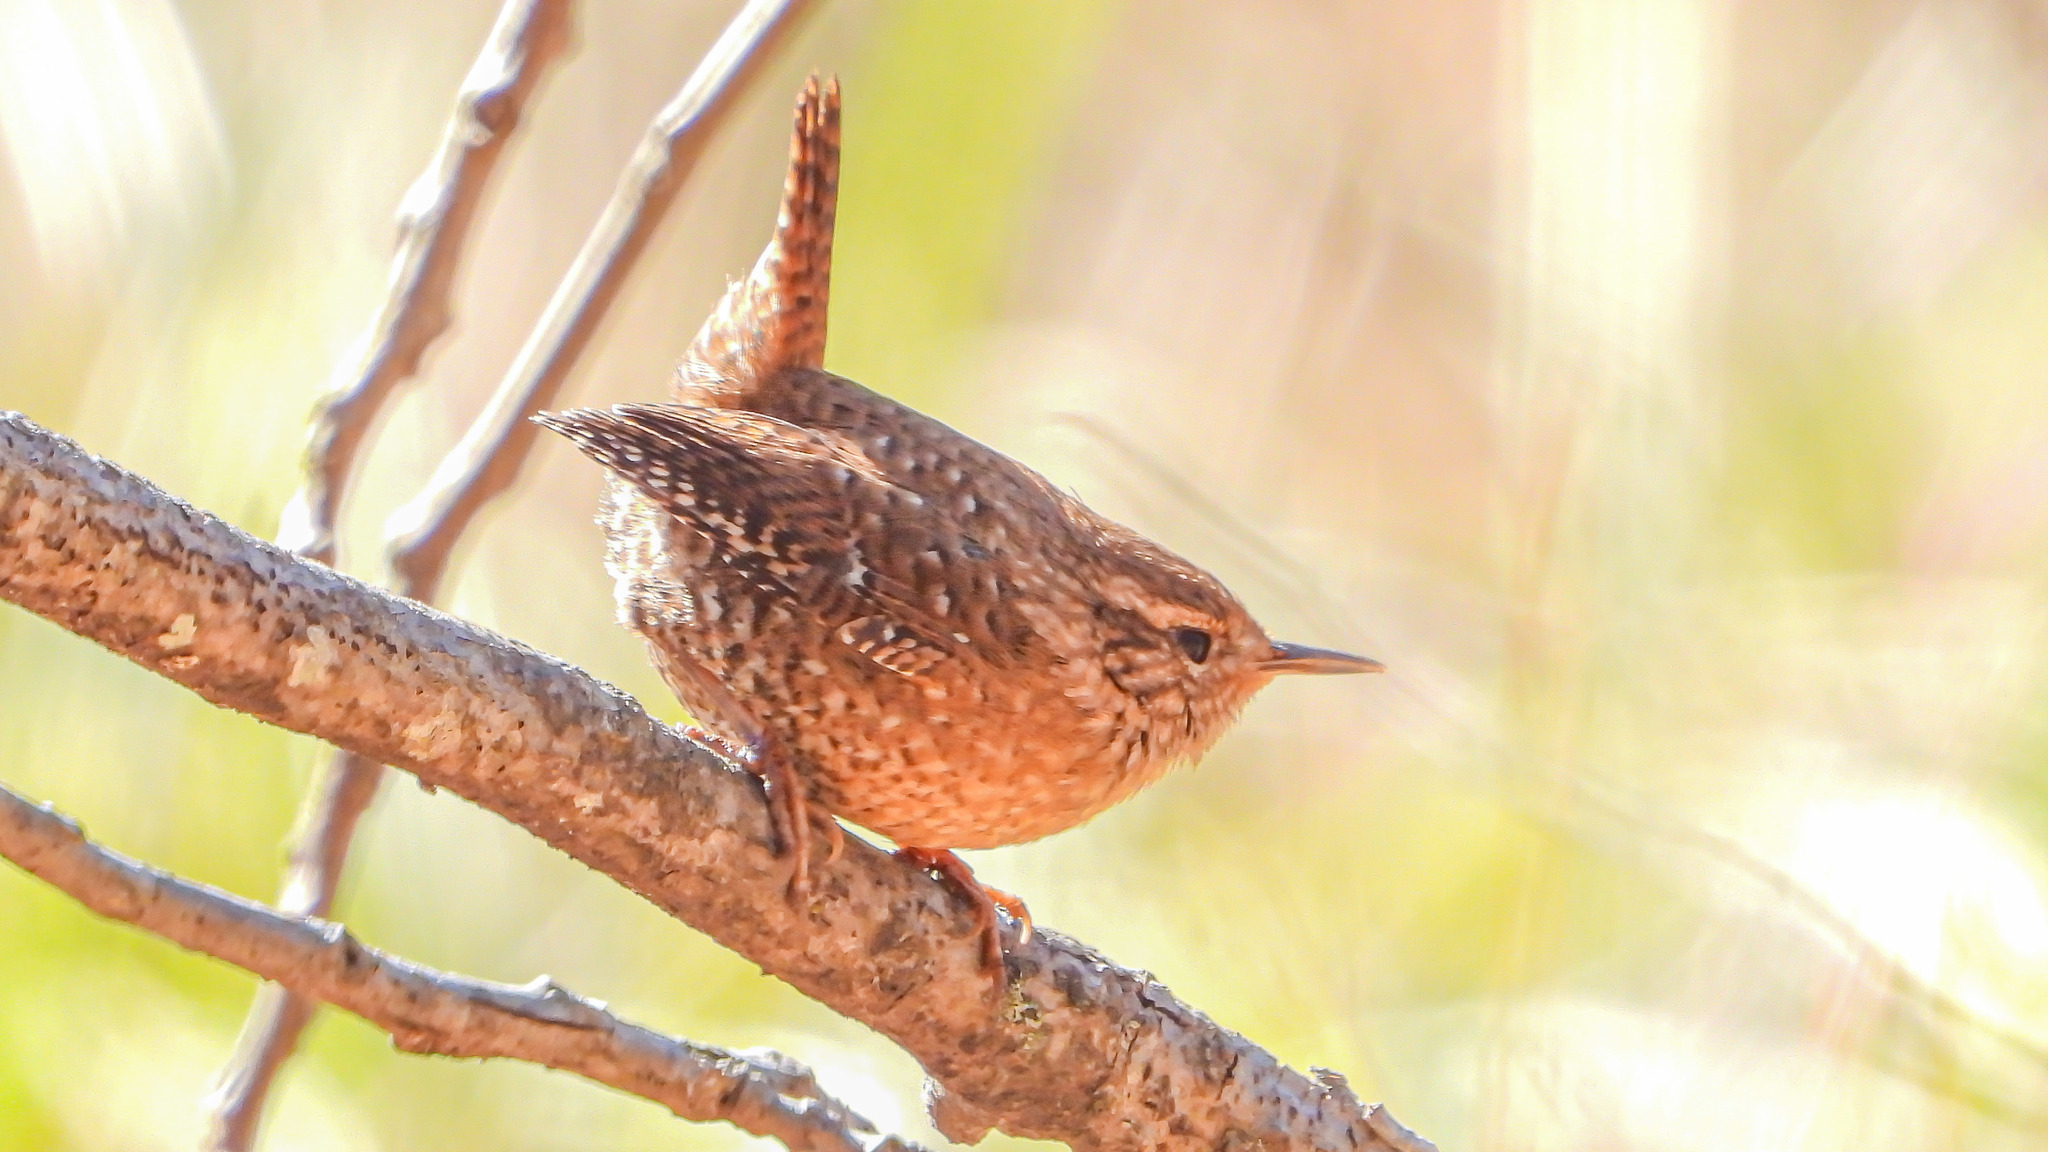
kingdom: Animalia
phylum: Chordata
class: Aves
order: Passeriformes
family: Troglodytidae
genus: Troglodytes
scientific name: Troglodytes hiemalis
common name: Winter wren
